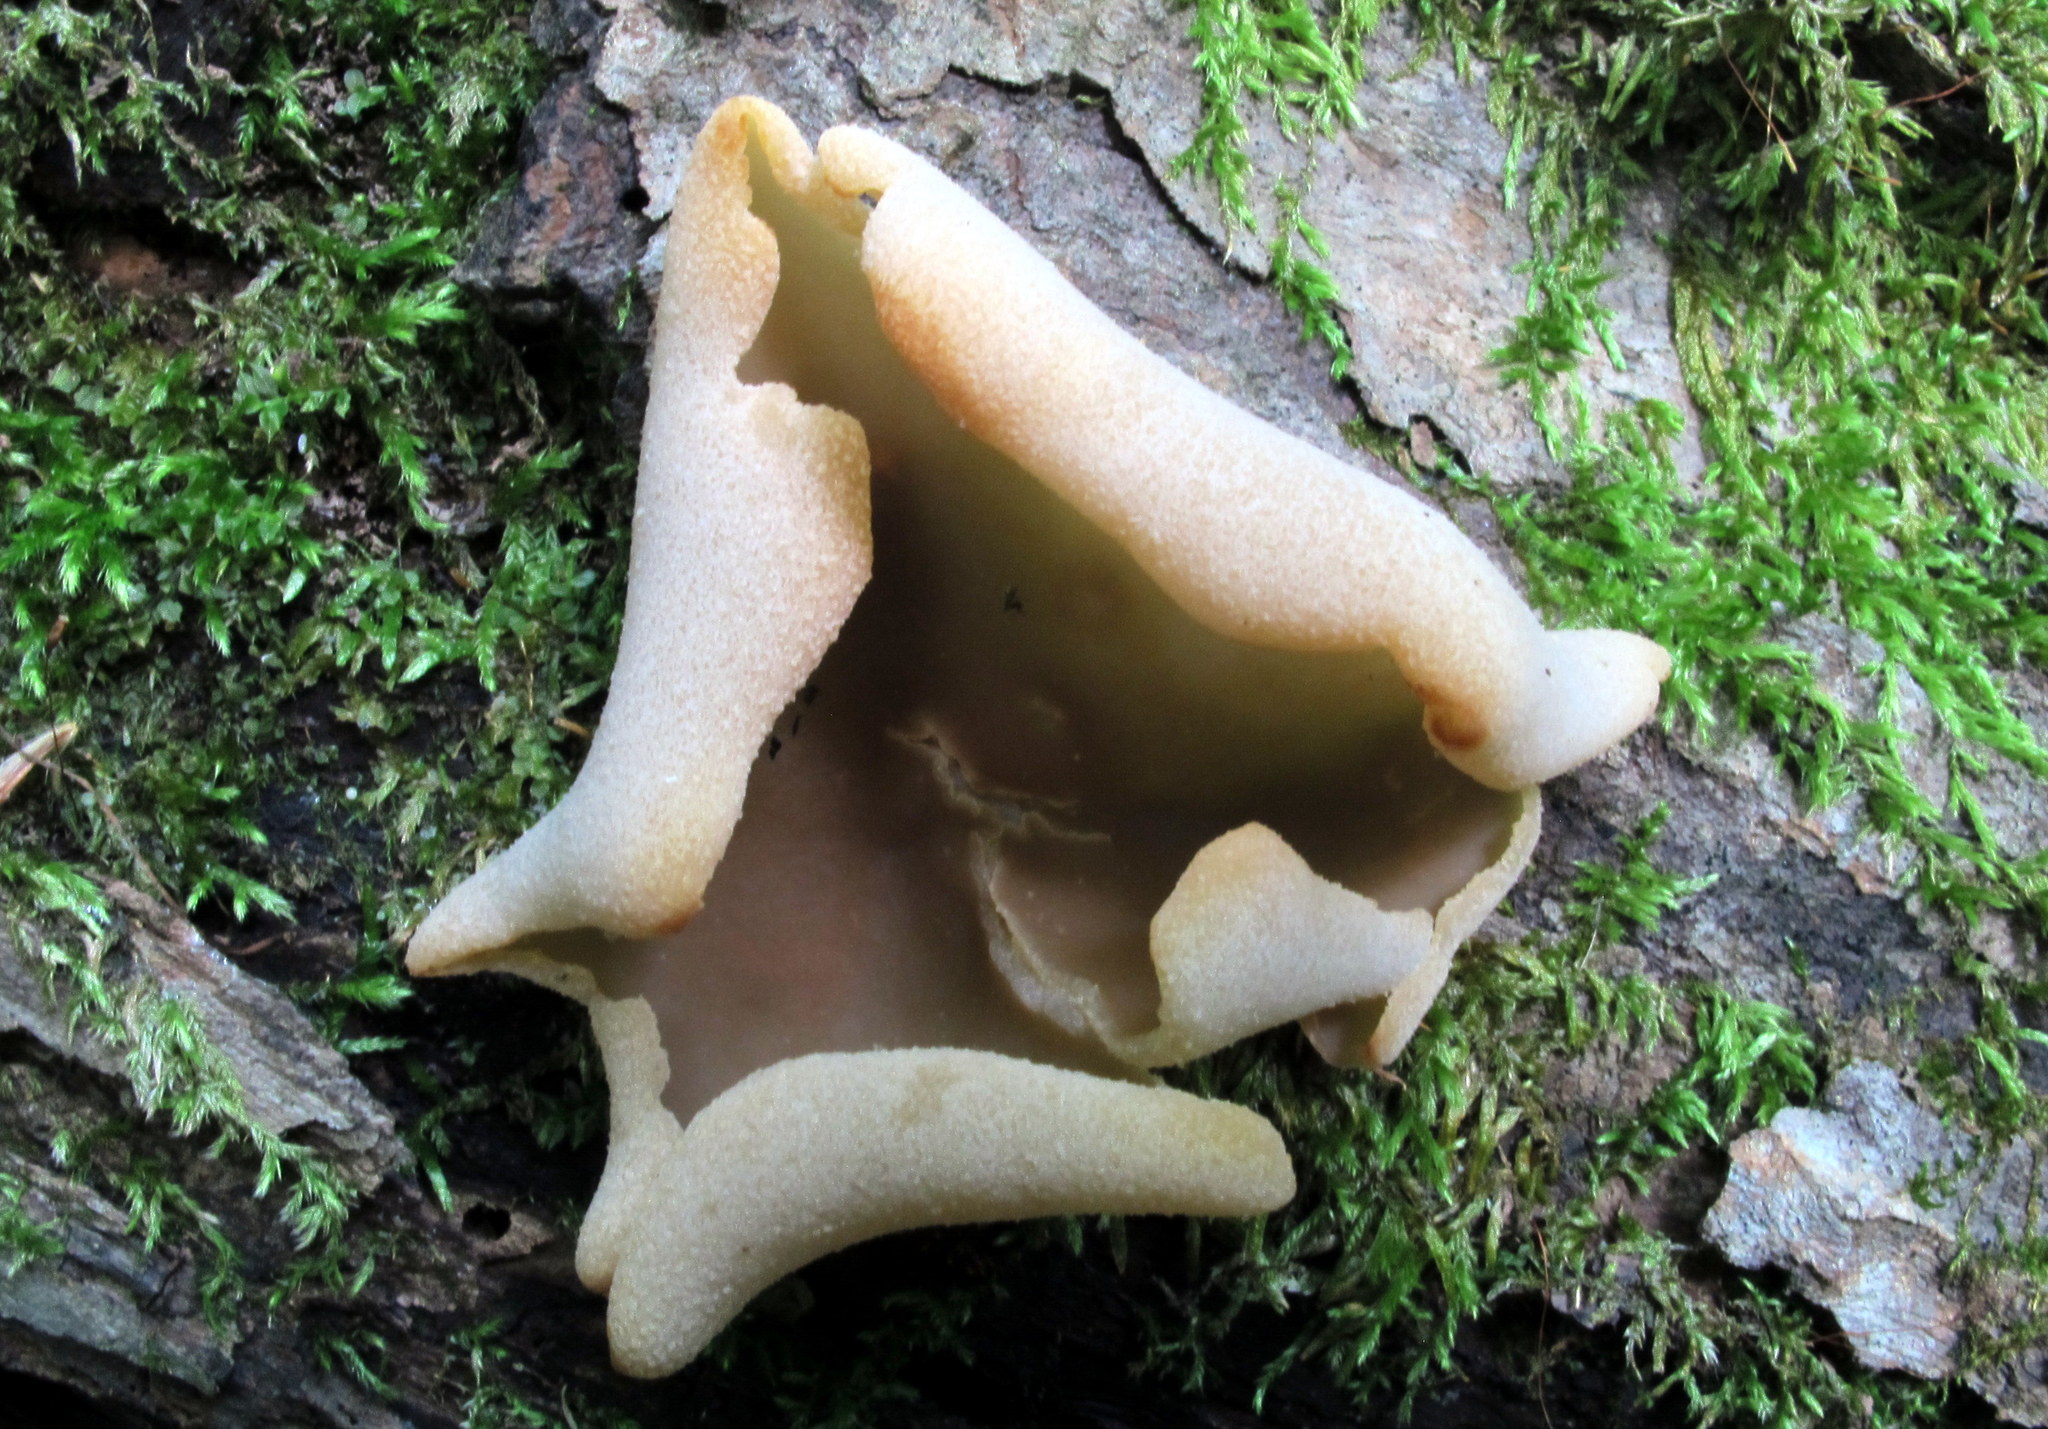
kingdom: Fungi
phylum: Ascomycota
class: Pezizomycetes
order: Pezizales
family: Pezizaceae
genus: Peziza
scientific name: Peziza varia
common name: Layered cup
